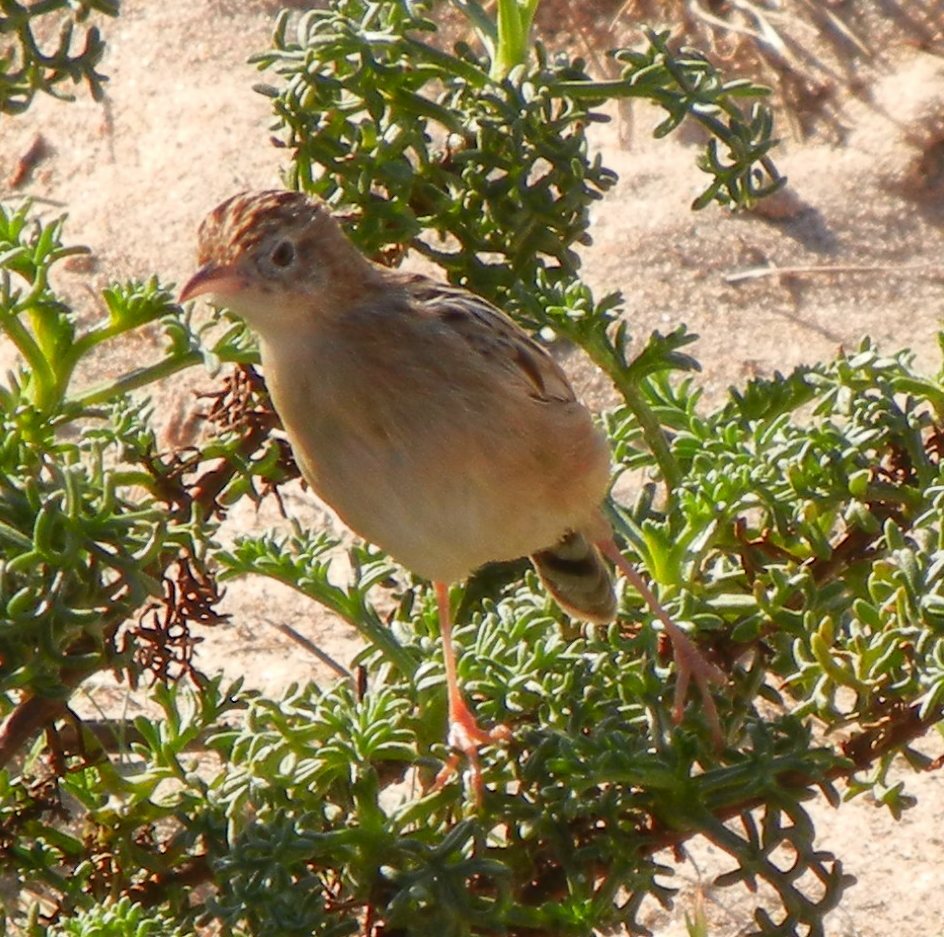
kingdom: Animalia
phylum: Chordata
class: Aves
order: Passeriformes
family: Cisticolidae
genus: Cisticola
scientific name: Cisticola juncidis
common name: Zitting cisticola
